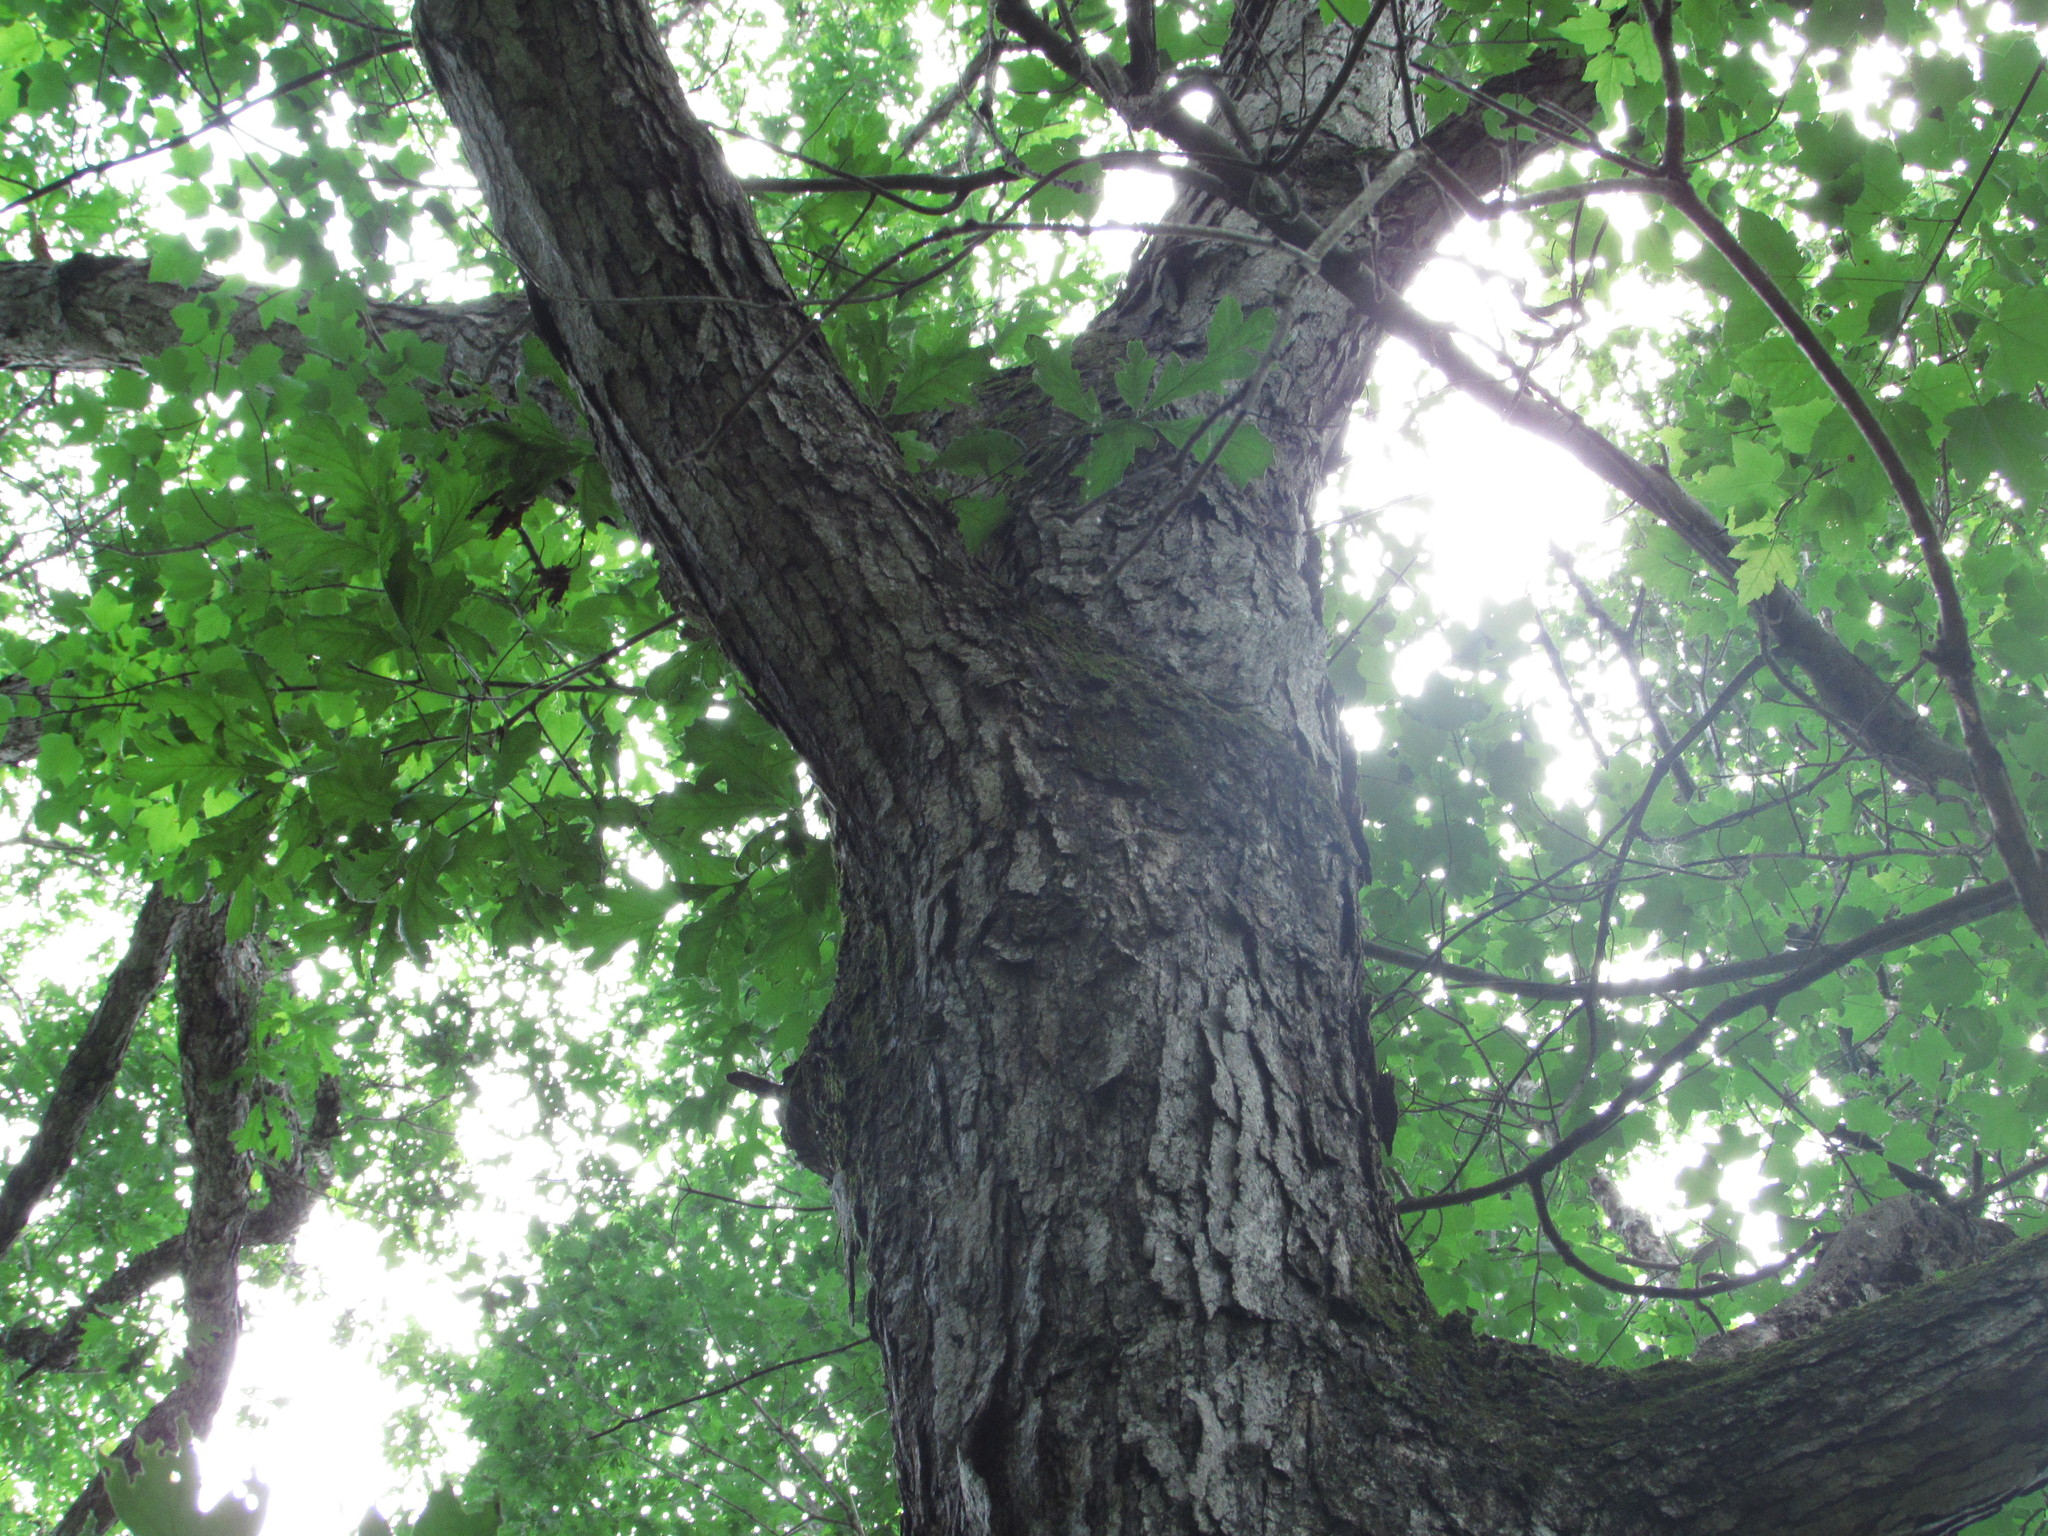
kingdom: Plantae
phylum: Tracheophyta
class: Magnoliopsida
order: Fagales
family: Fagaceae
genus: Quercus
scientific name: Quercus alba
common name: White oak
